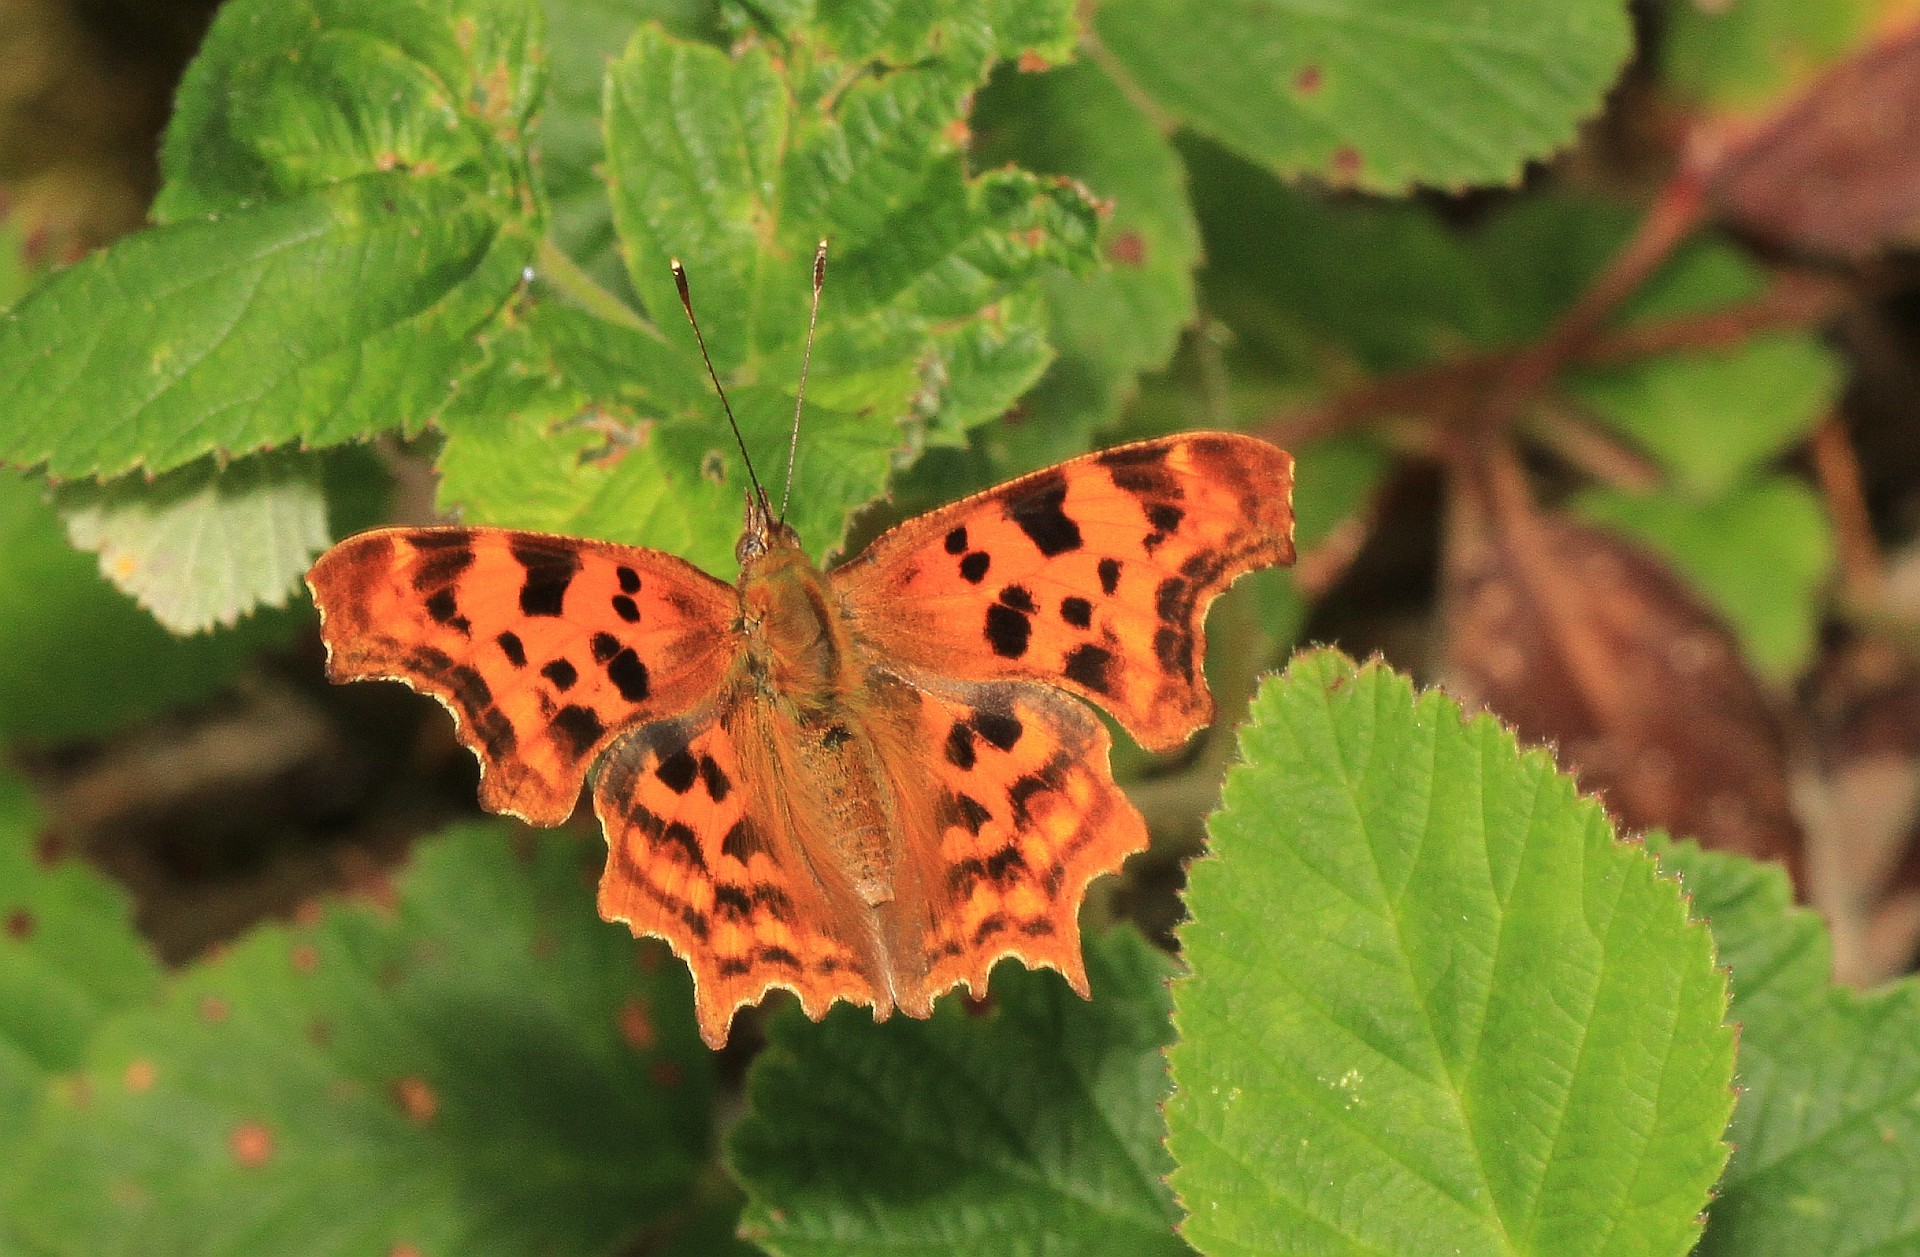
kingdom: Animalia
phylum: Arthropoda
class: Insecta
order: Lepidoptera
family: Nymphalidae
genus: Polygonia
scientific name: Polygonia c-album
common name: Comma
